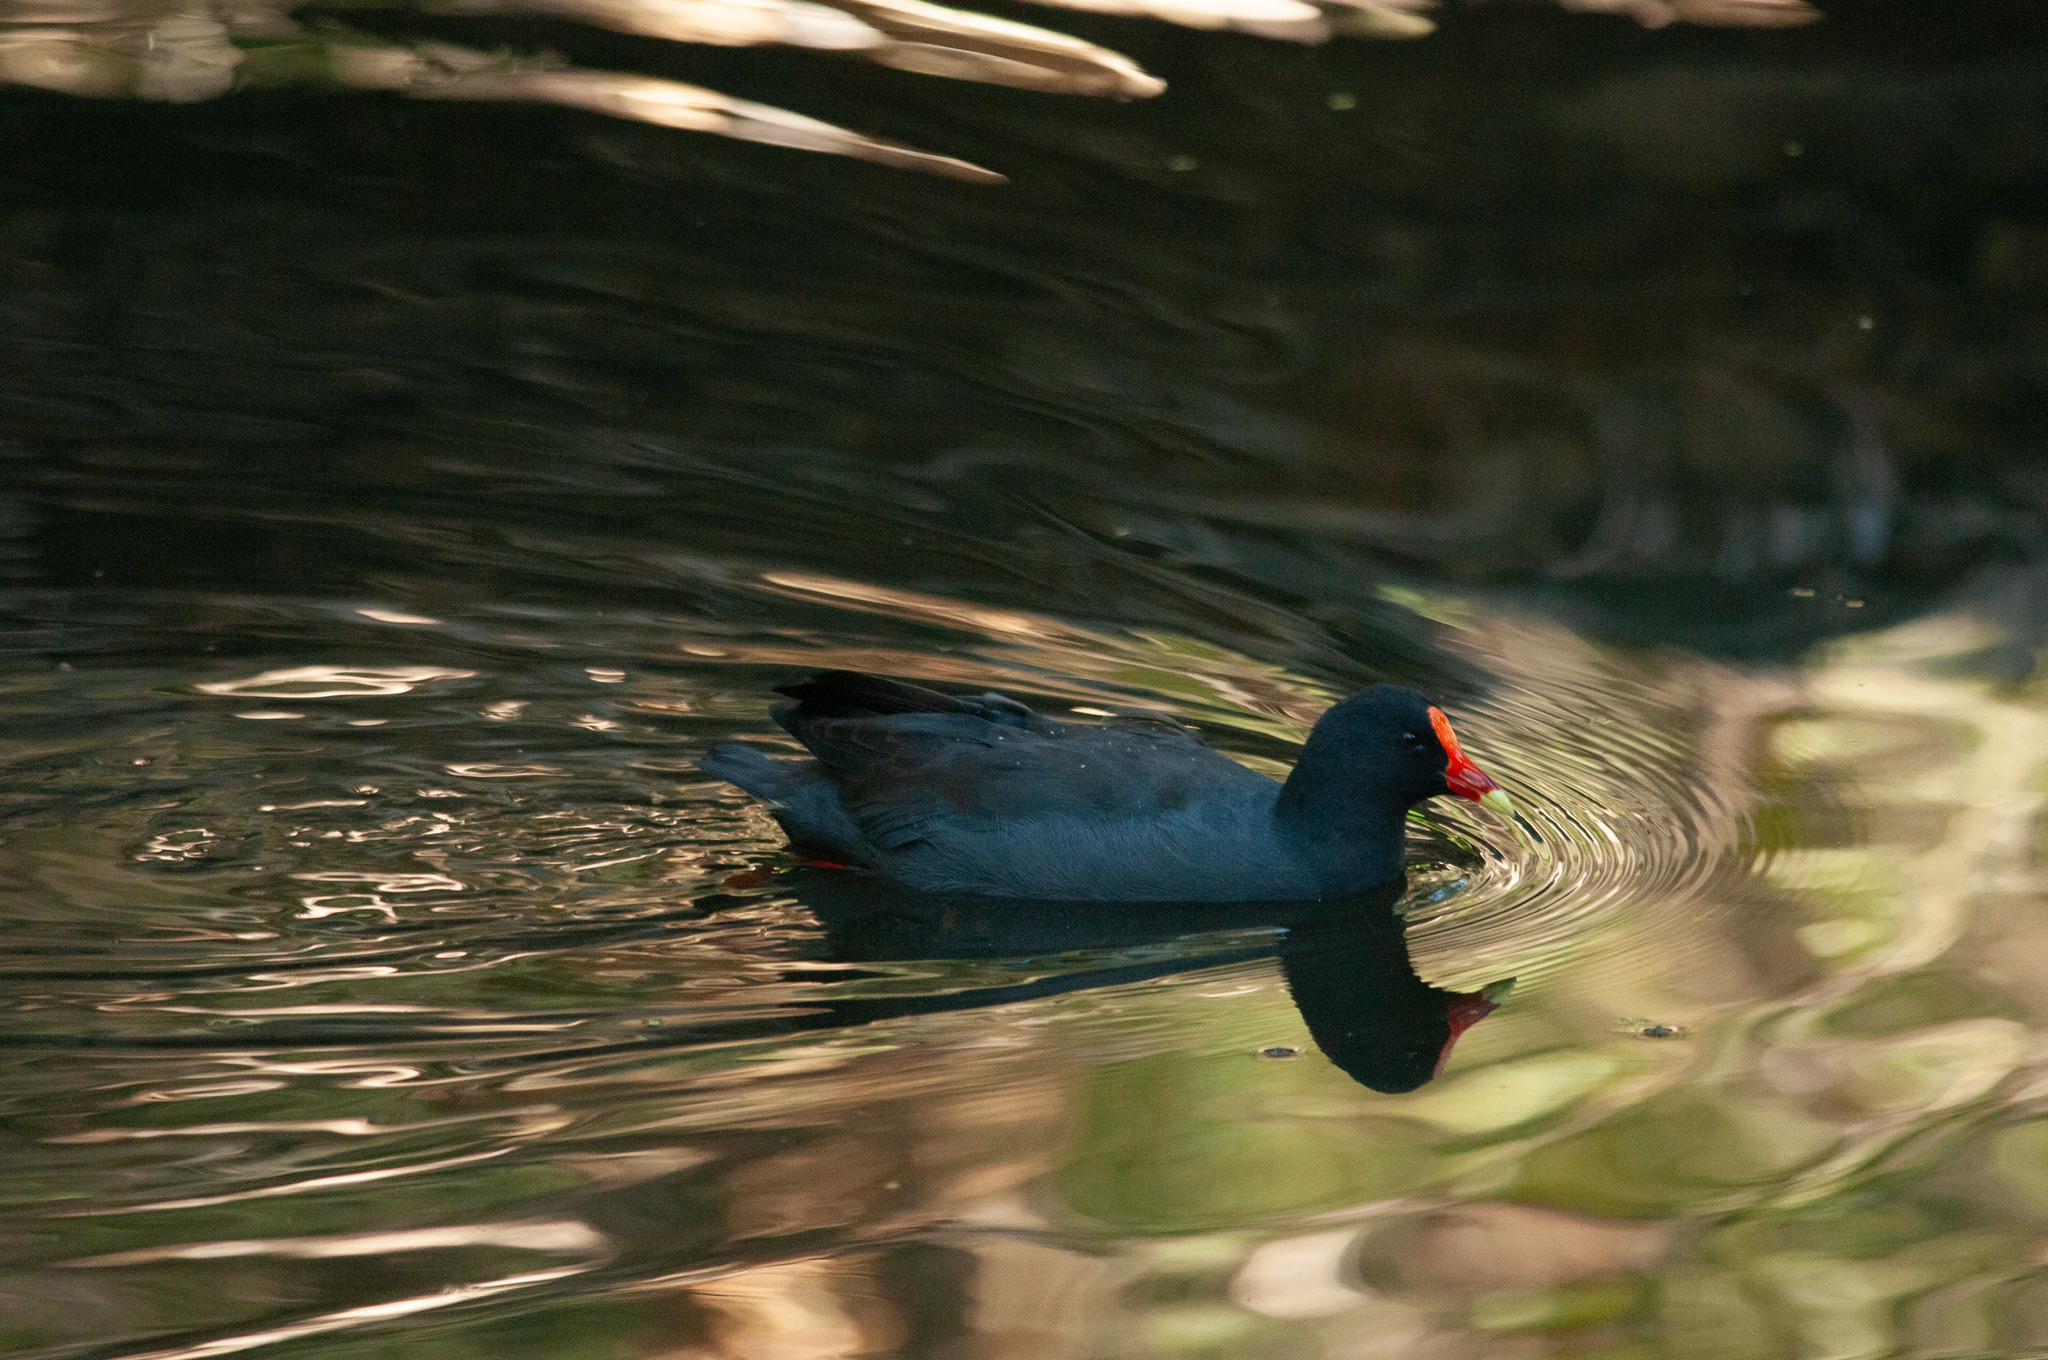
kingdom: Animalia
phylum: Chordata
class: Aves
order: Gruiformes
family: Rallidae
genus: Gallinula
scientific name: Gallinula tenebrosa
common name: Dusky moorhen
